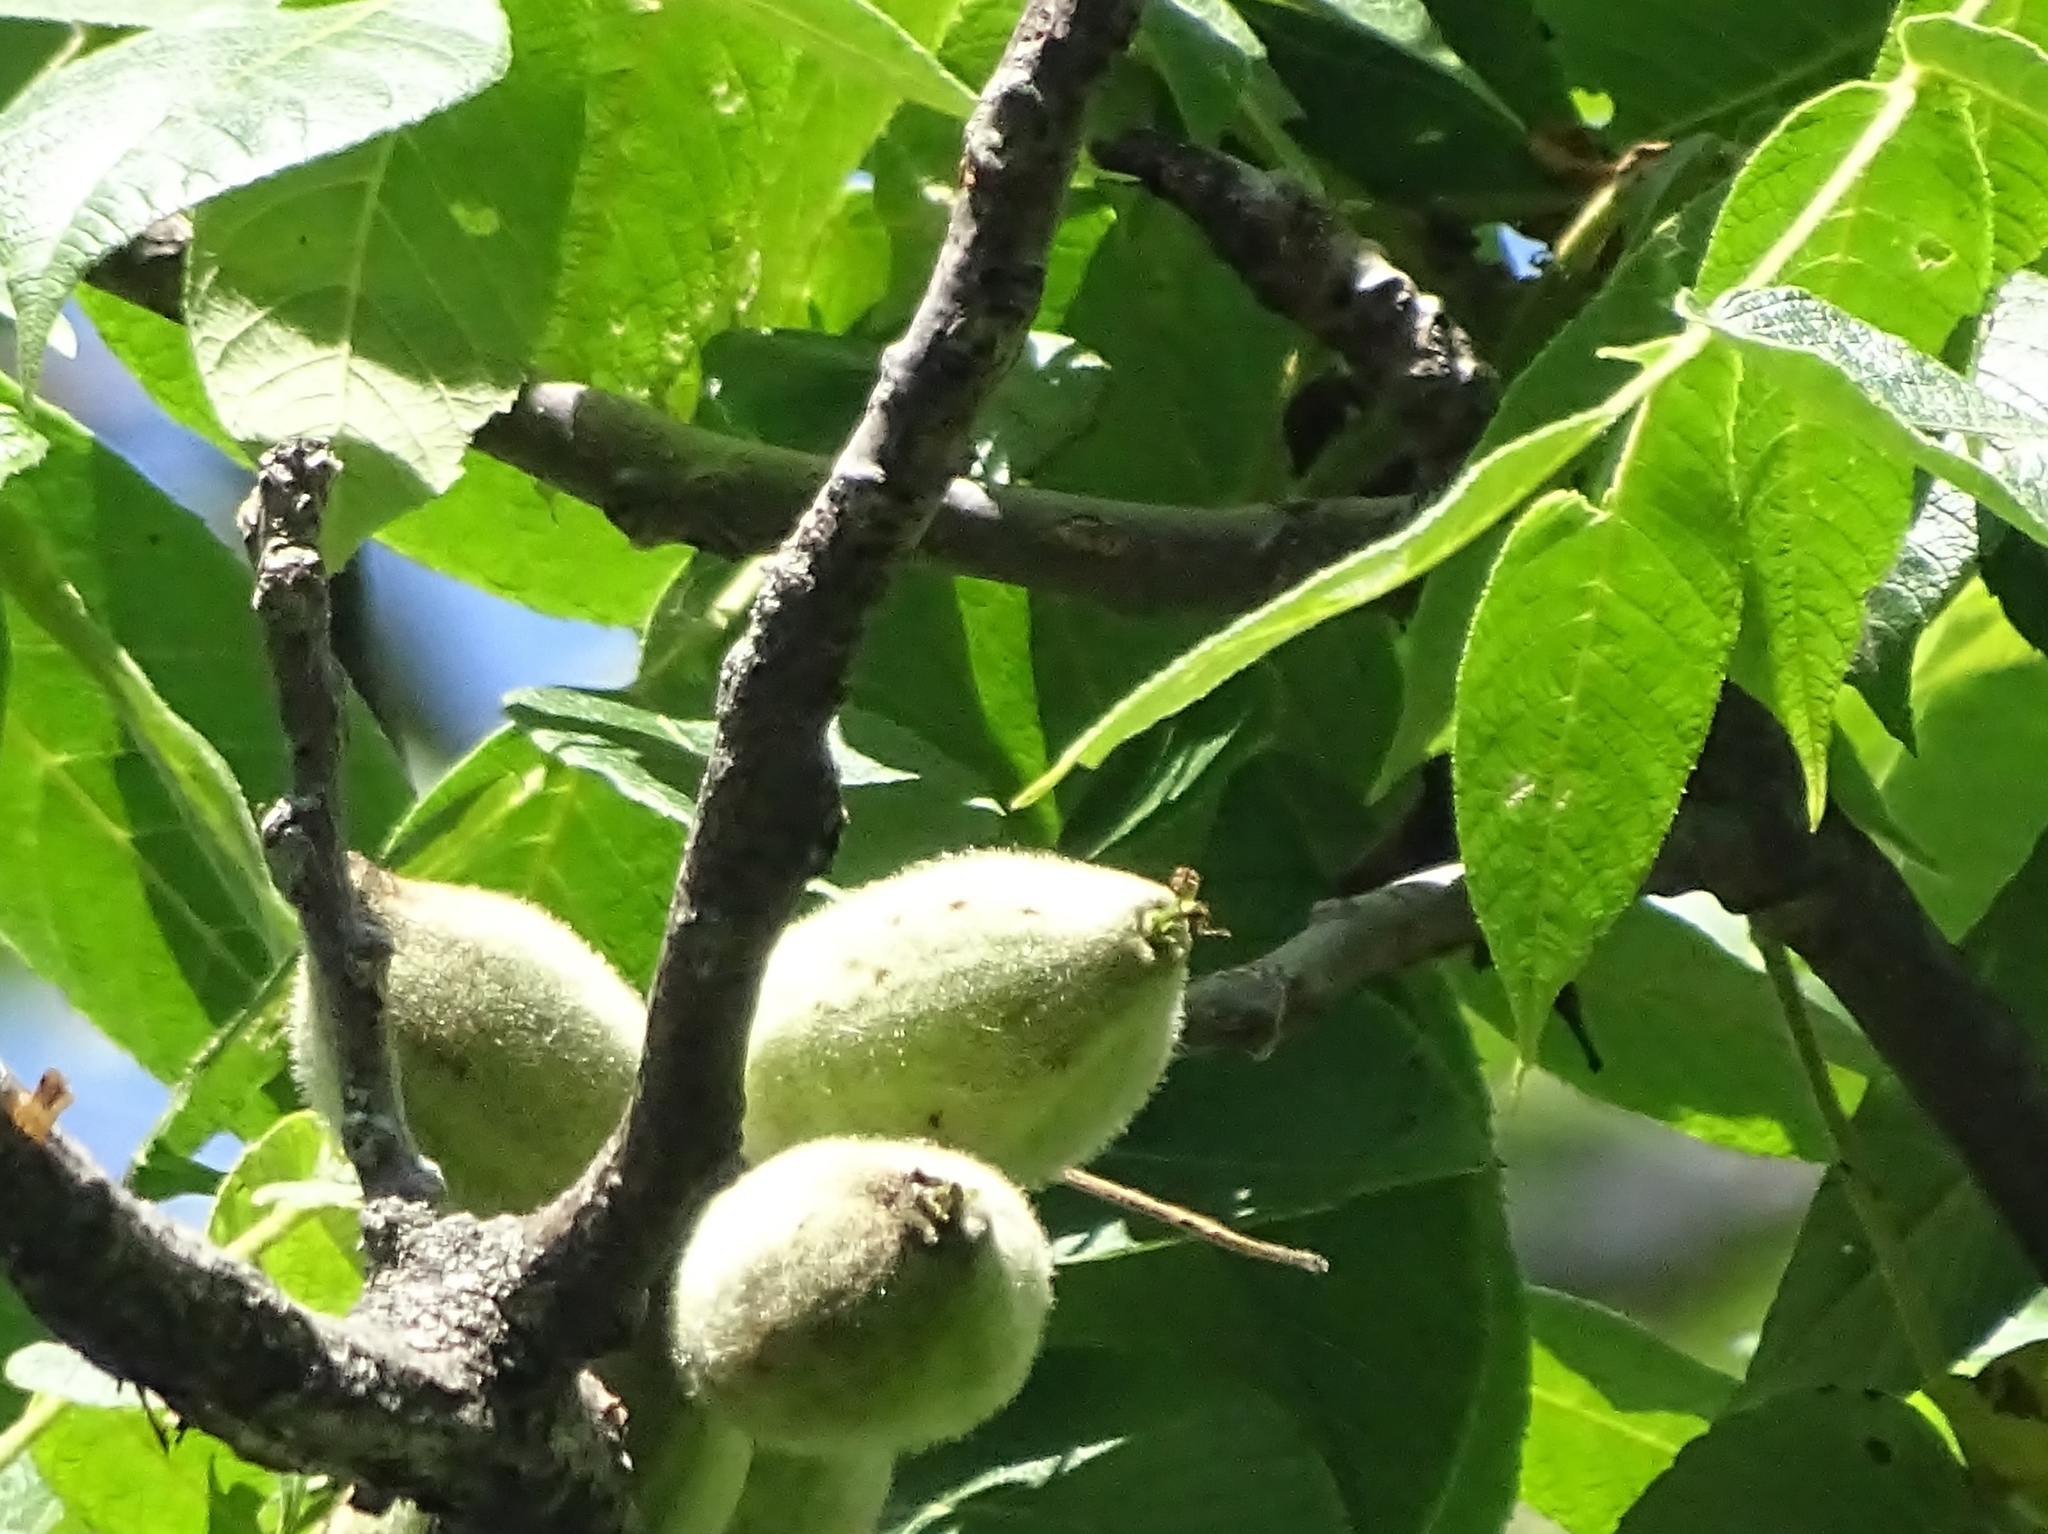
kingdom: Plantae
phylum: Tracheophyta
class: Magnoliopsida
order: Fagales
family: Juglandaceae
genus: Juglans
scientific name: Juglans cinerea
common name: Butternut
